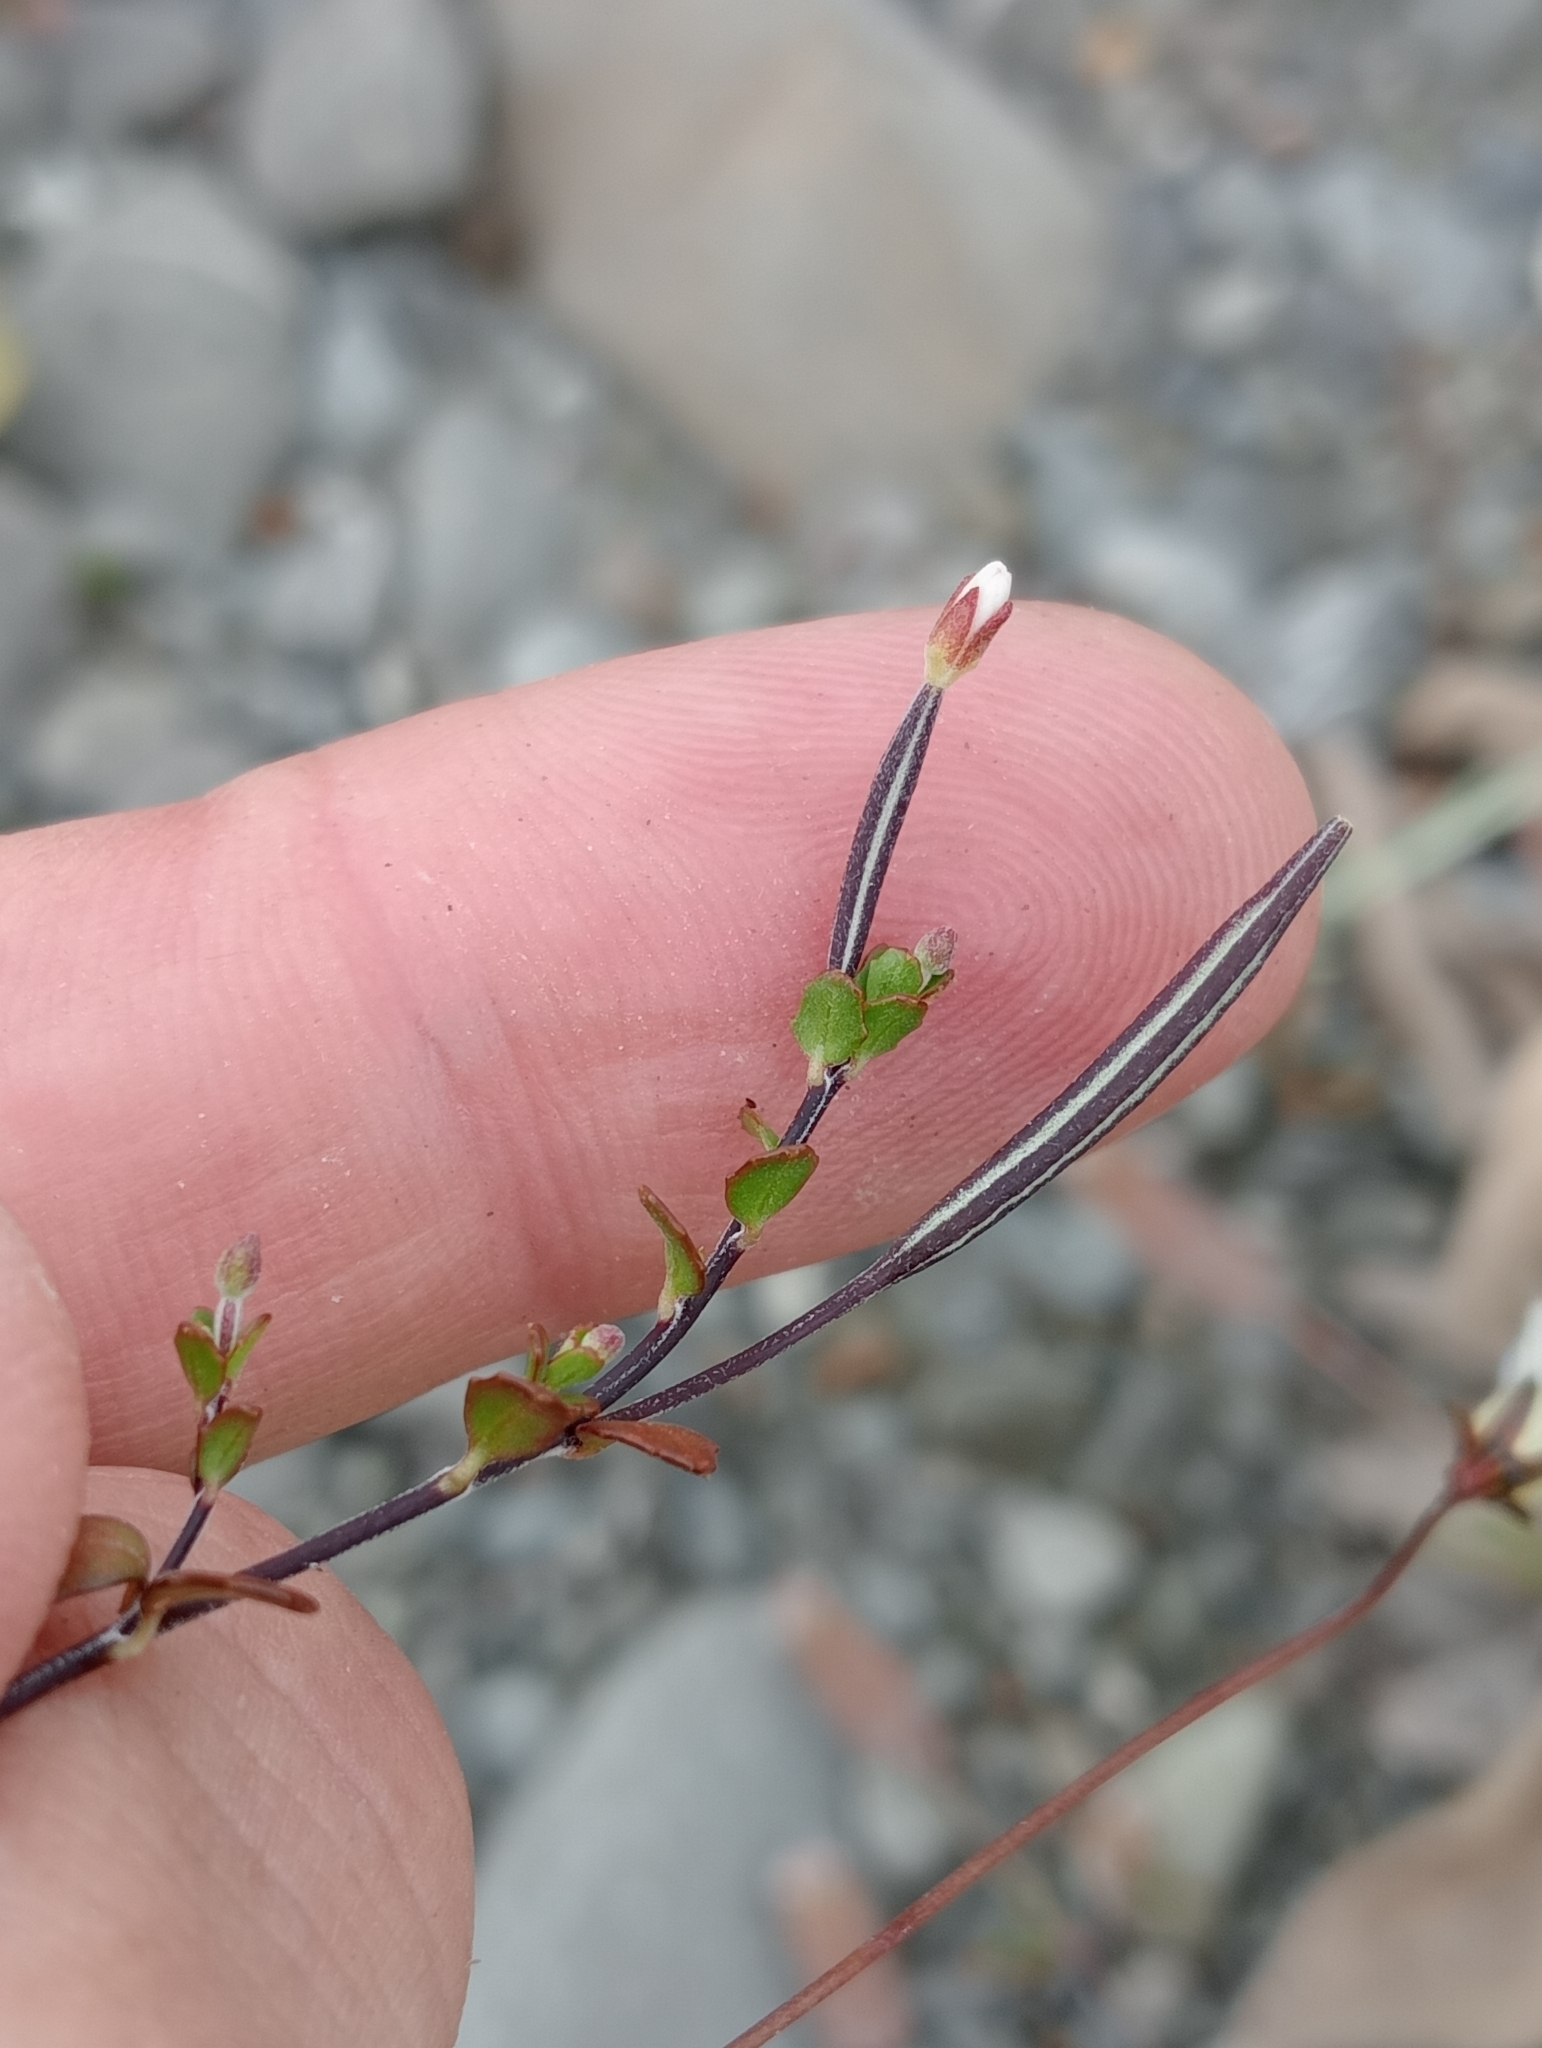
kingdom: Plantae
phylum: Tracheophyta
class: Magnoliopsida
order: Myrtales
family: Onagraceae
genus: Epilobium
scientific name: Epilobium microphyllum
